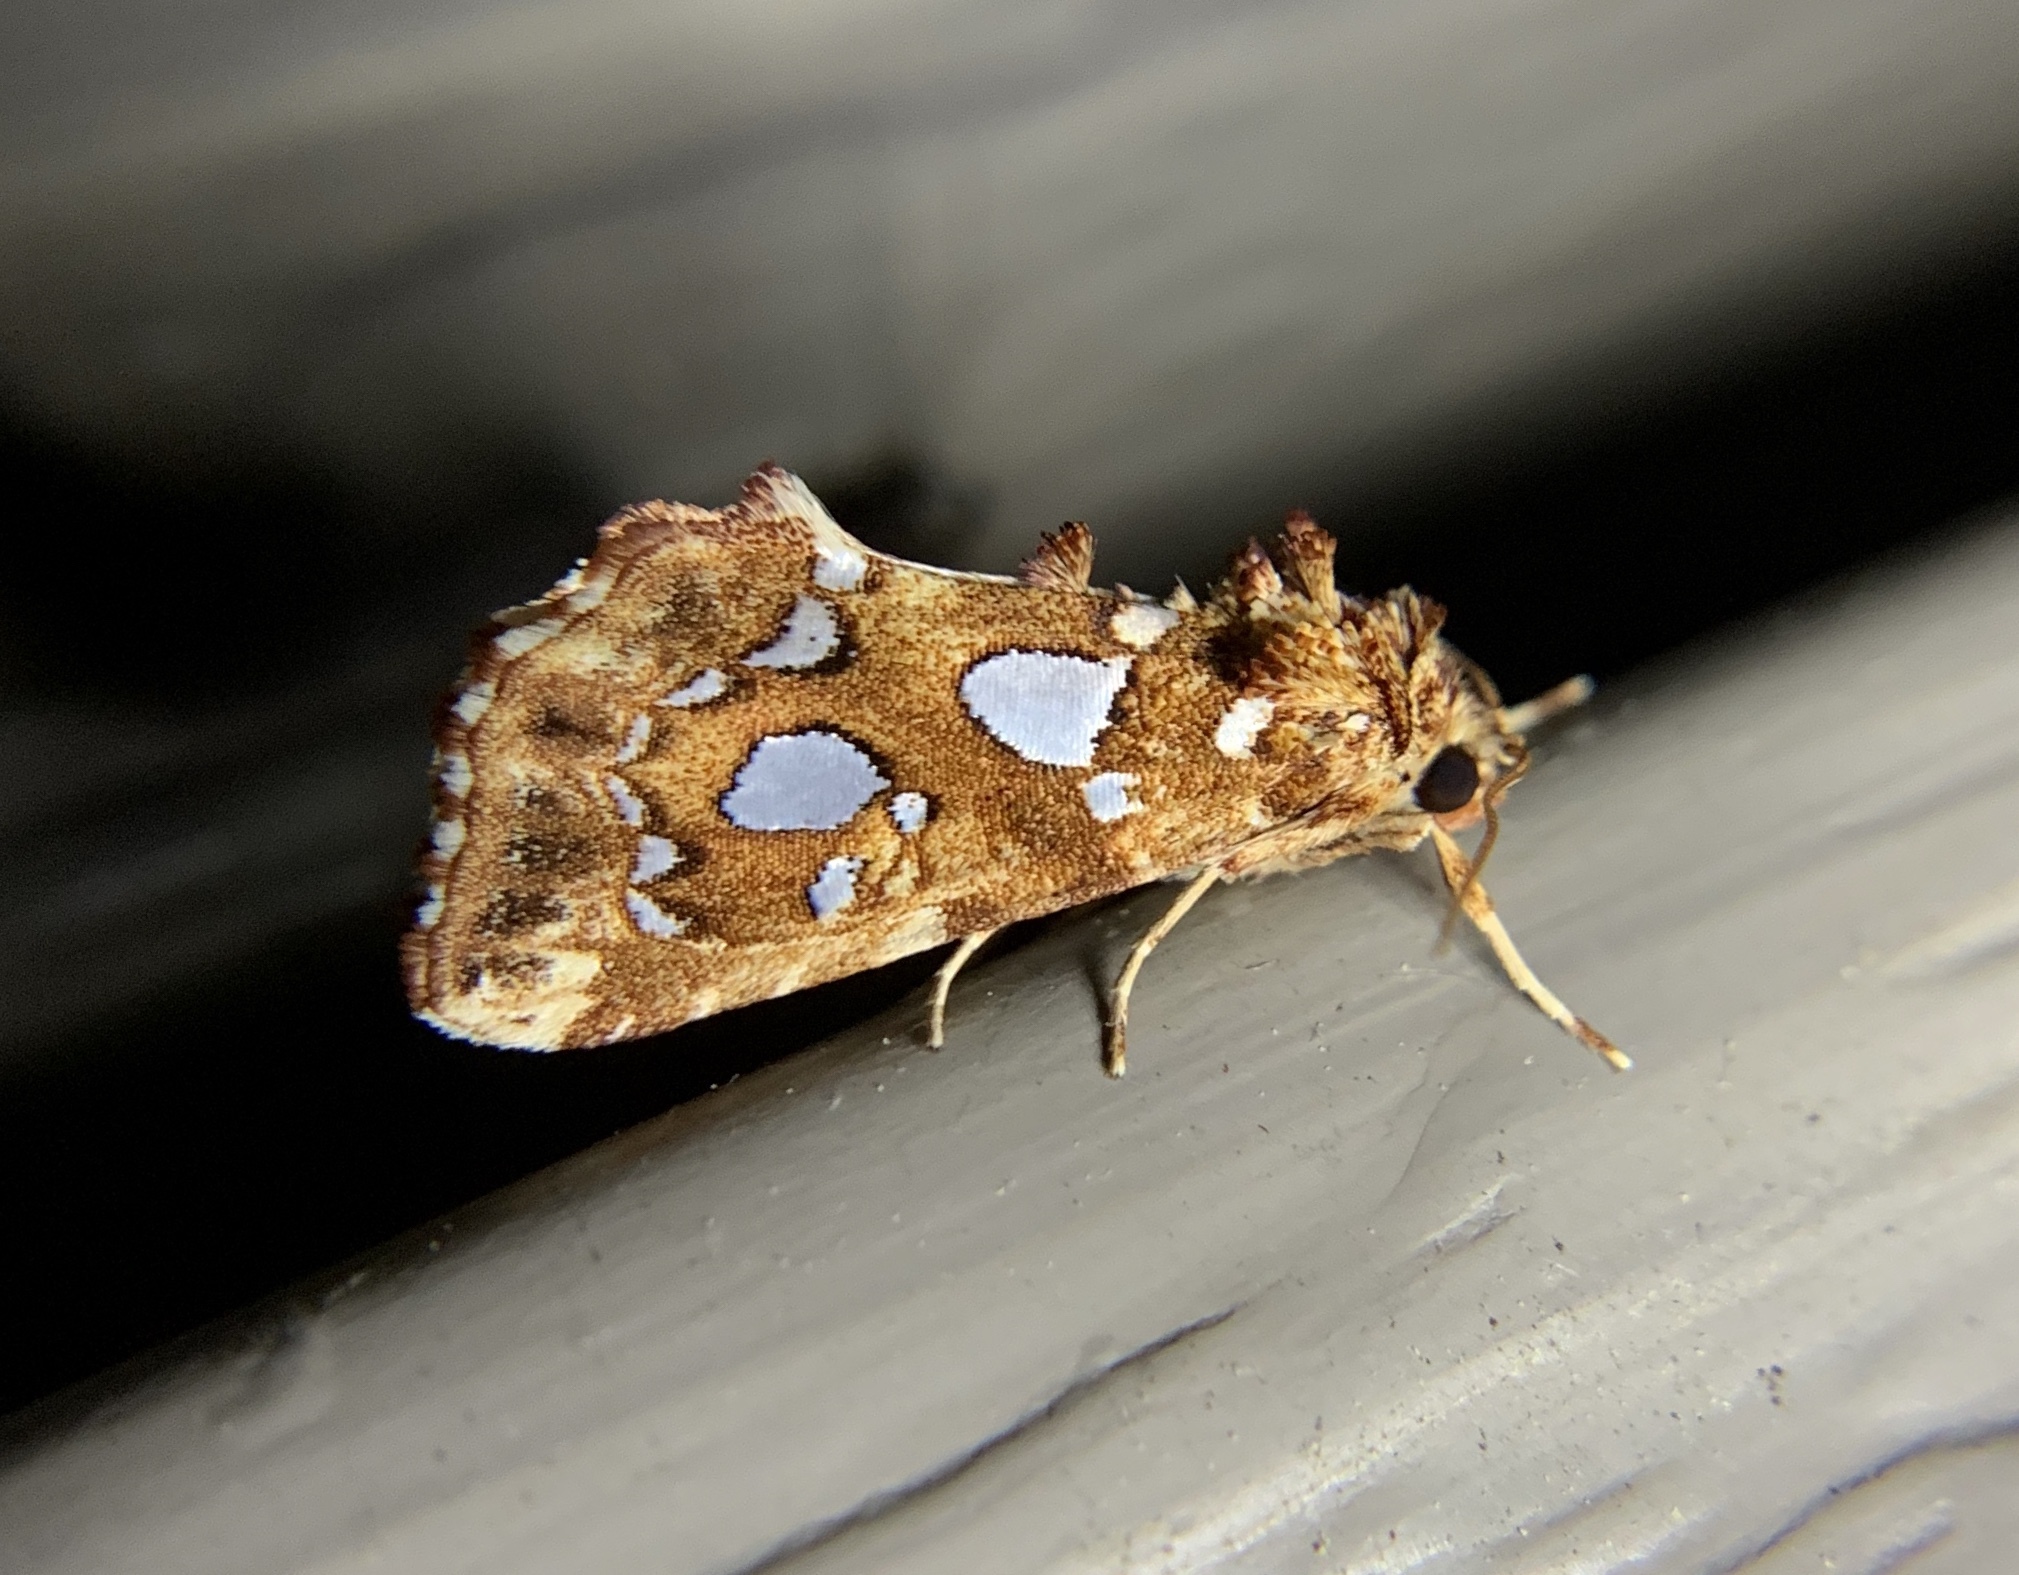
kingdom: Animalia
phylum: Arthropoda
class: Insecta
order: Lepidoptera
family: Noctuidae
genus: Callopistria
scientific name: Callopistria cordata
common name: Silver-spotted fern moth
